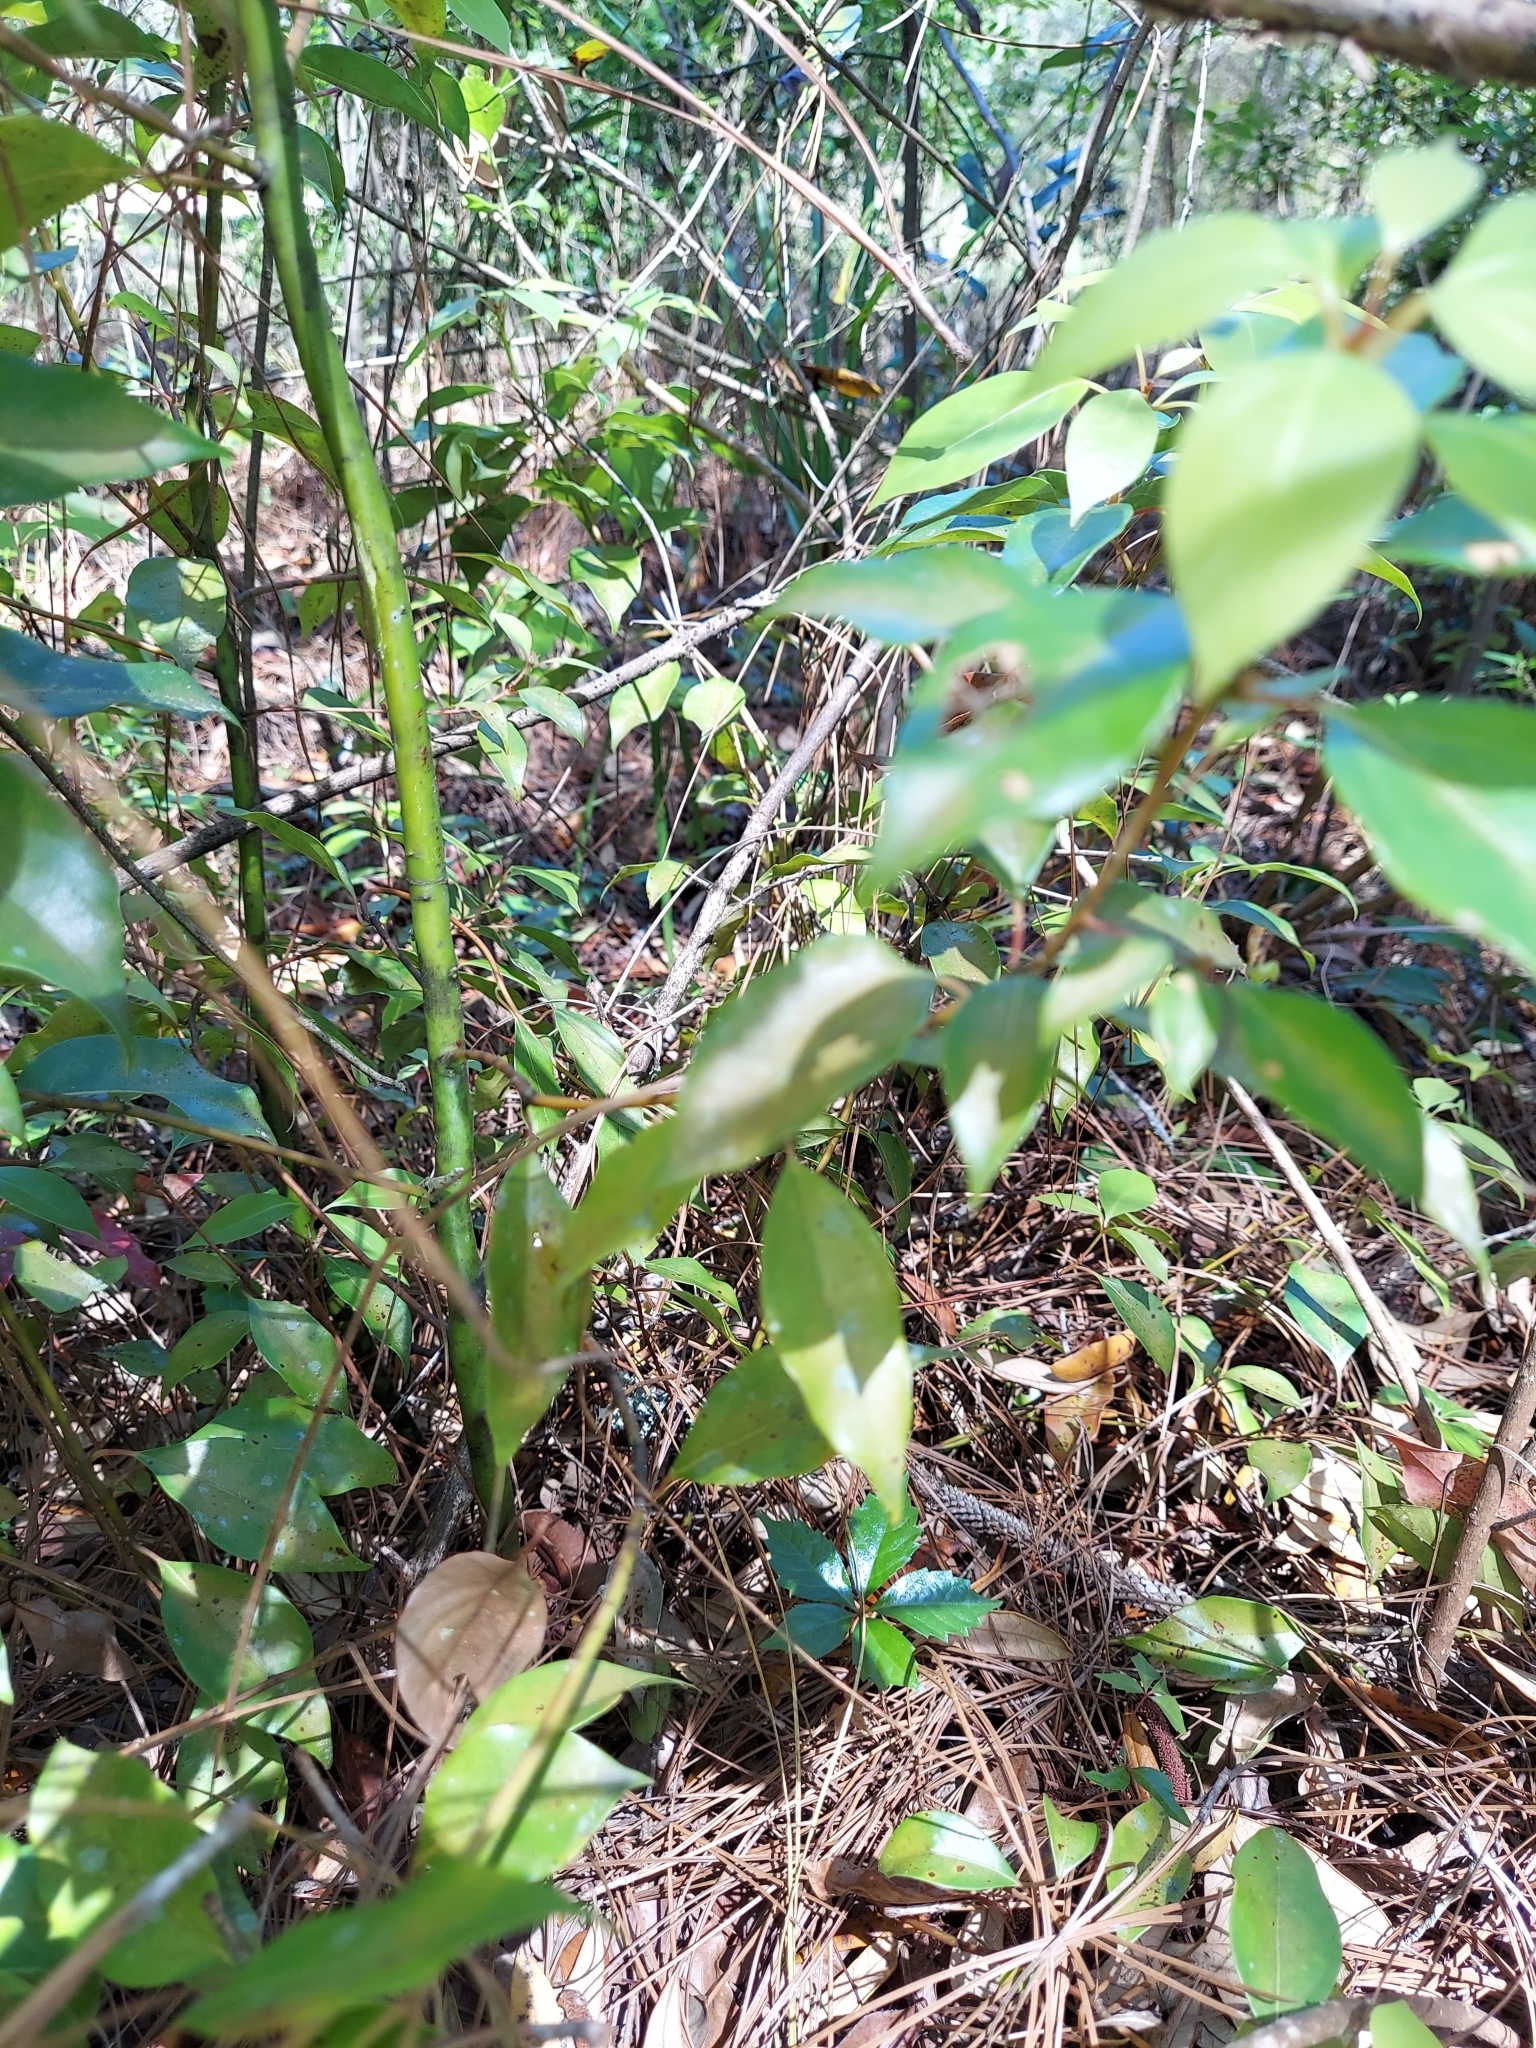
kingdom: Plantae
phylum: Tracheophyta
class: Magnoliopsida
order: Laurales
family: Lauraceae
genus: Cinnamomum
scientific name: Cinnamomum camphora
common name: Camphortree
